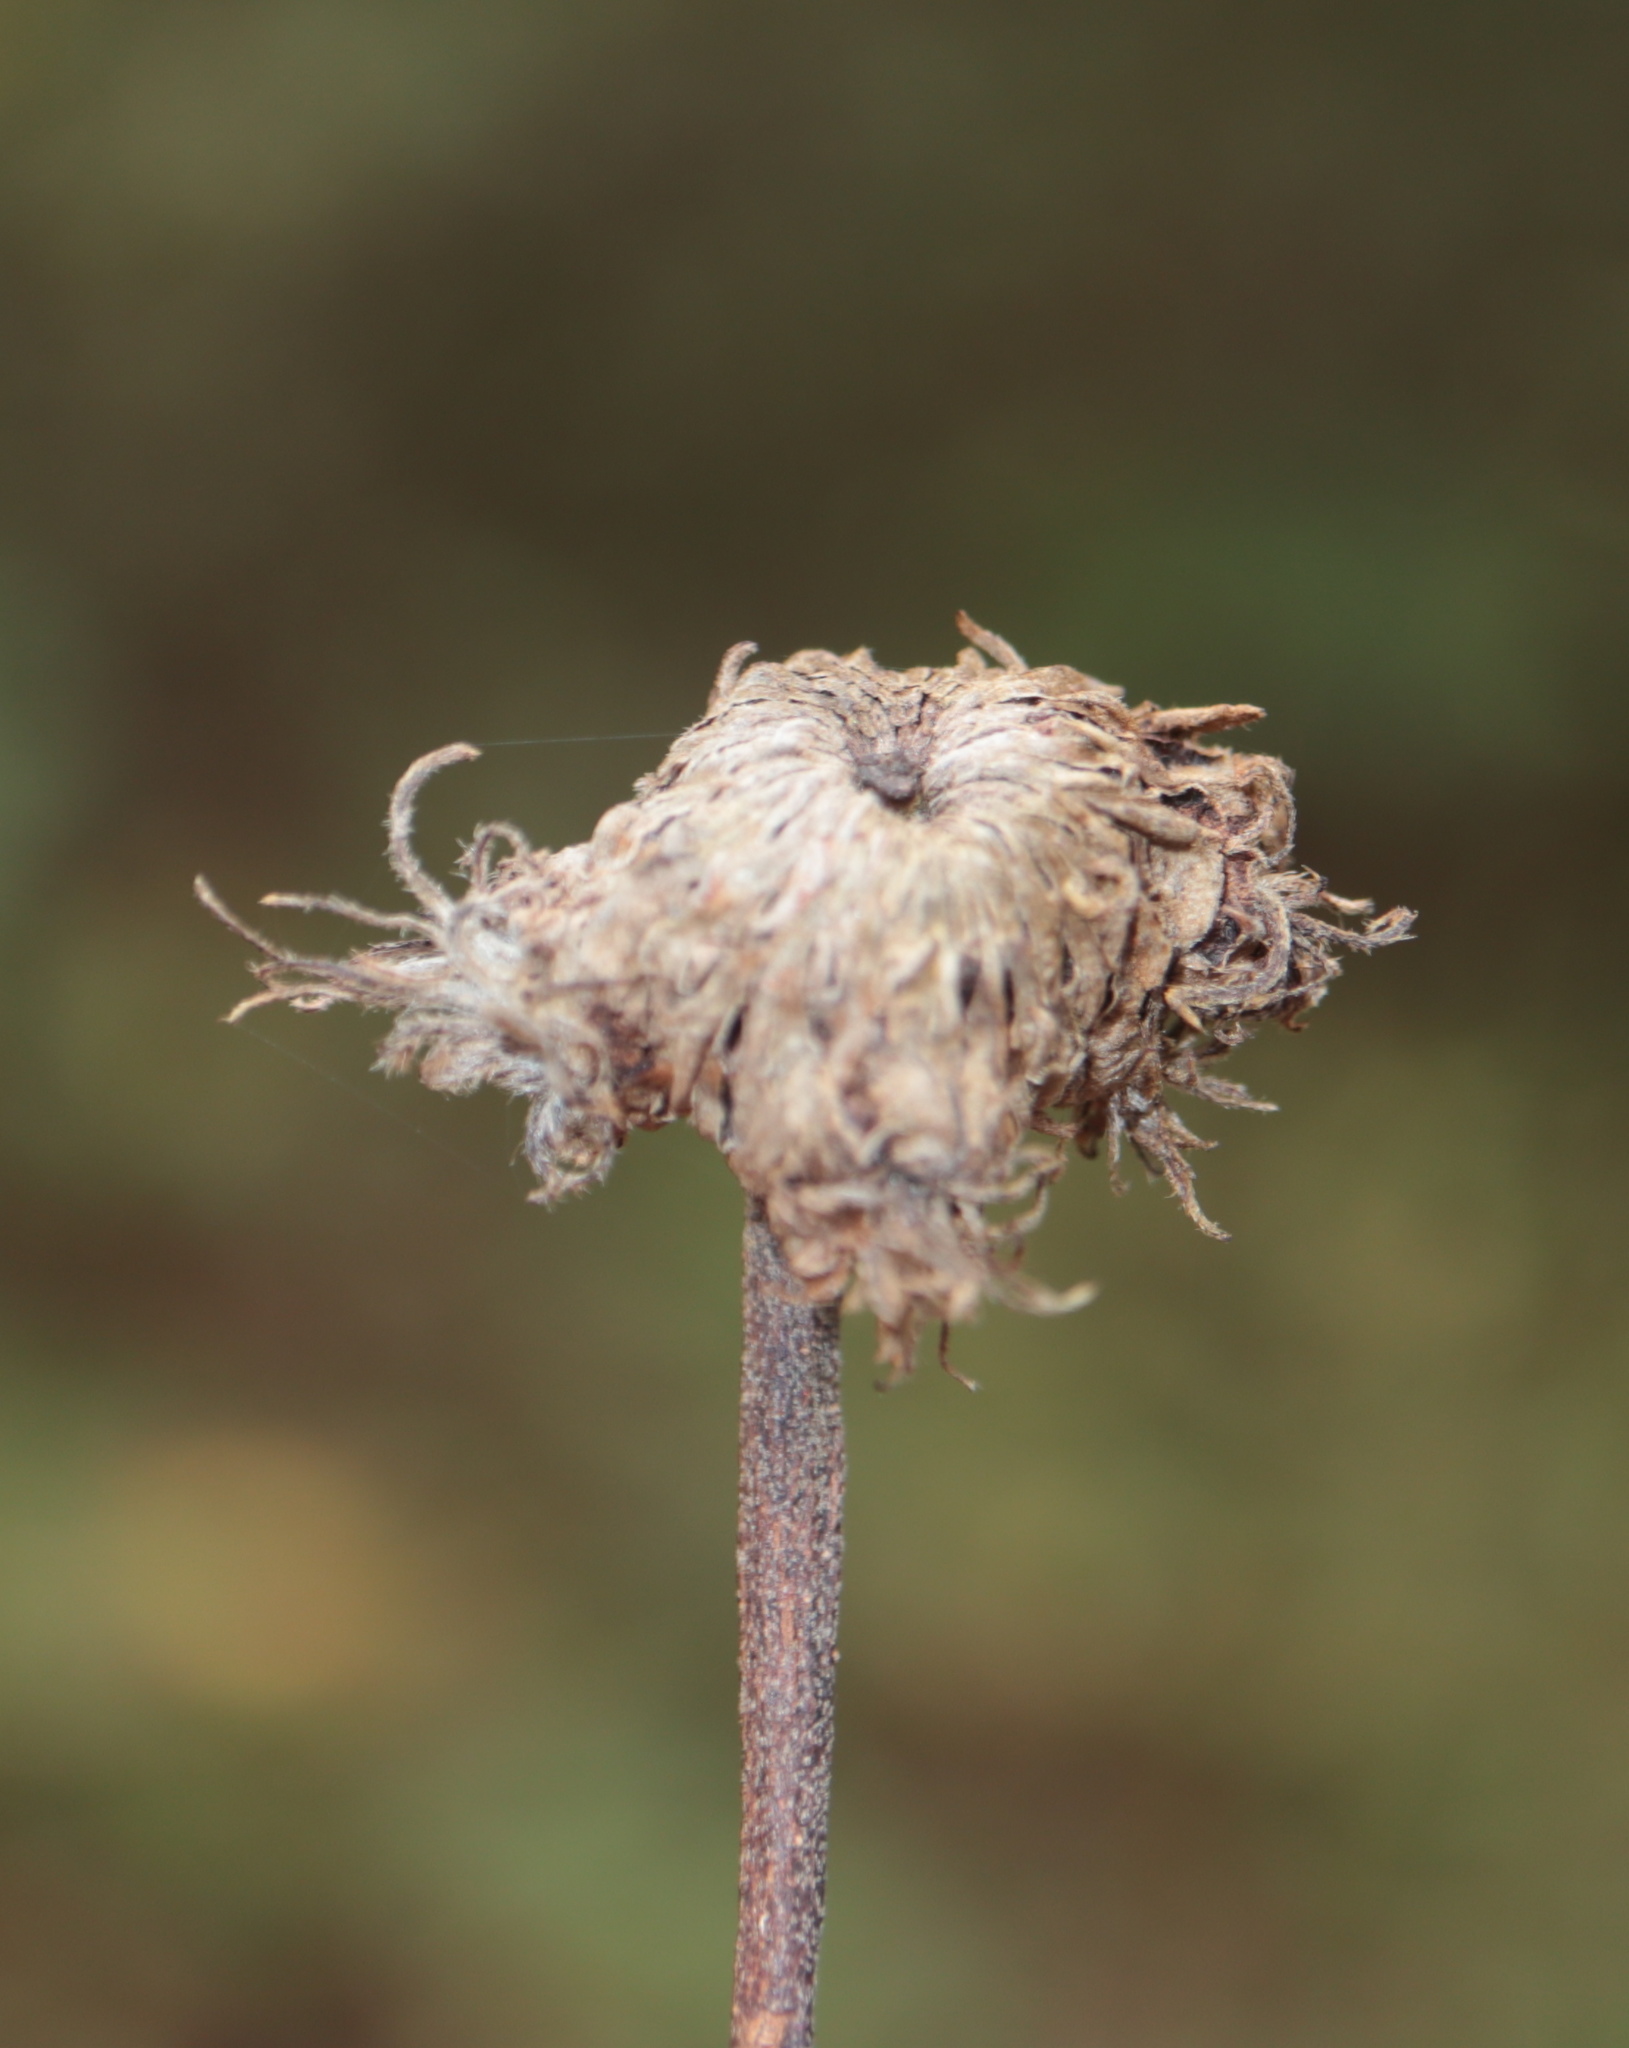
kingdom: Animalia
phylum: Arthropoda
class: Insecta
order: Hymenoptera
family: Cynipidae
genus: Andricus
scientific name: Andricus
